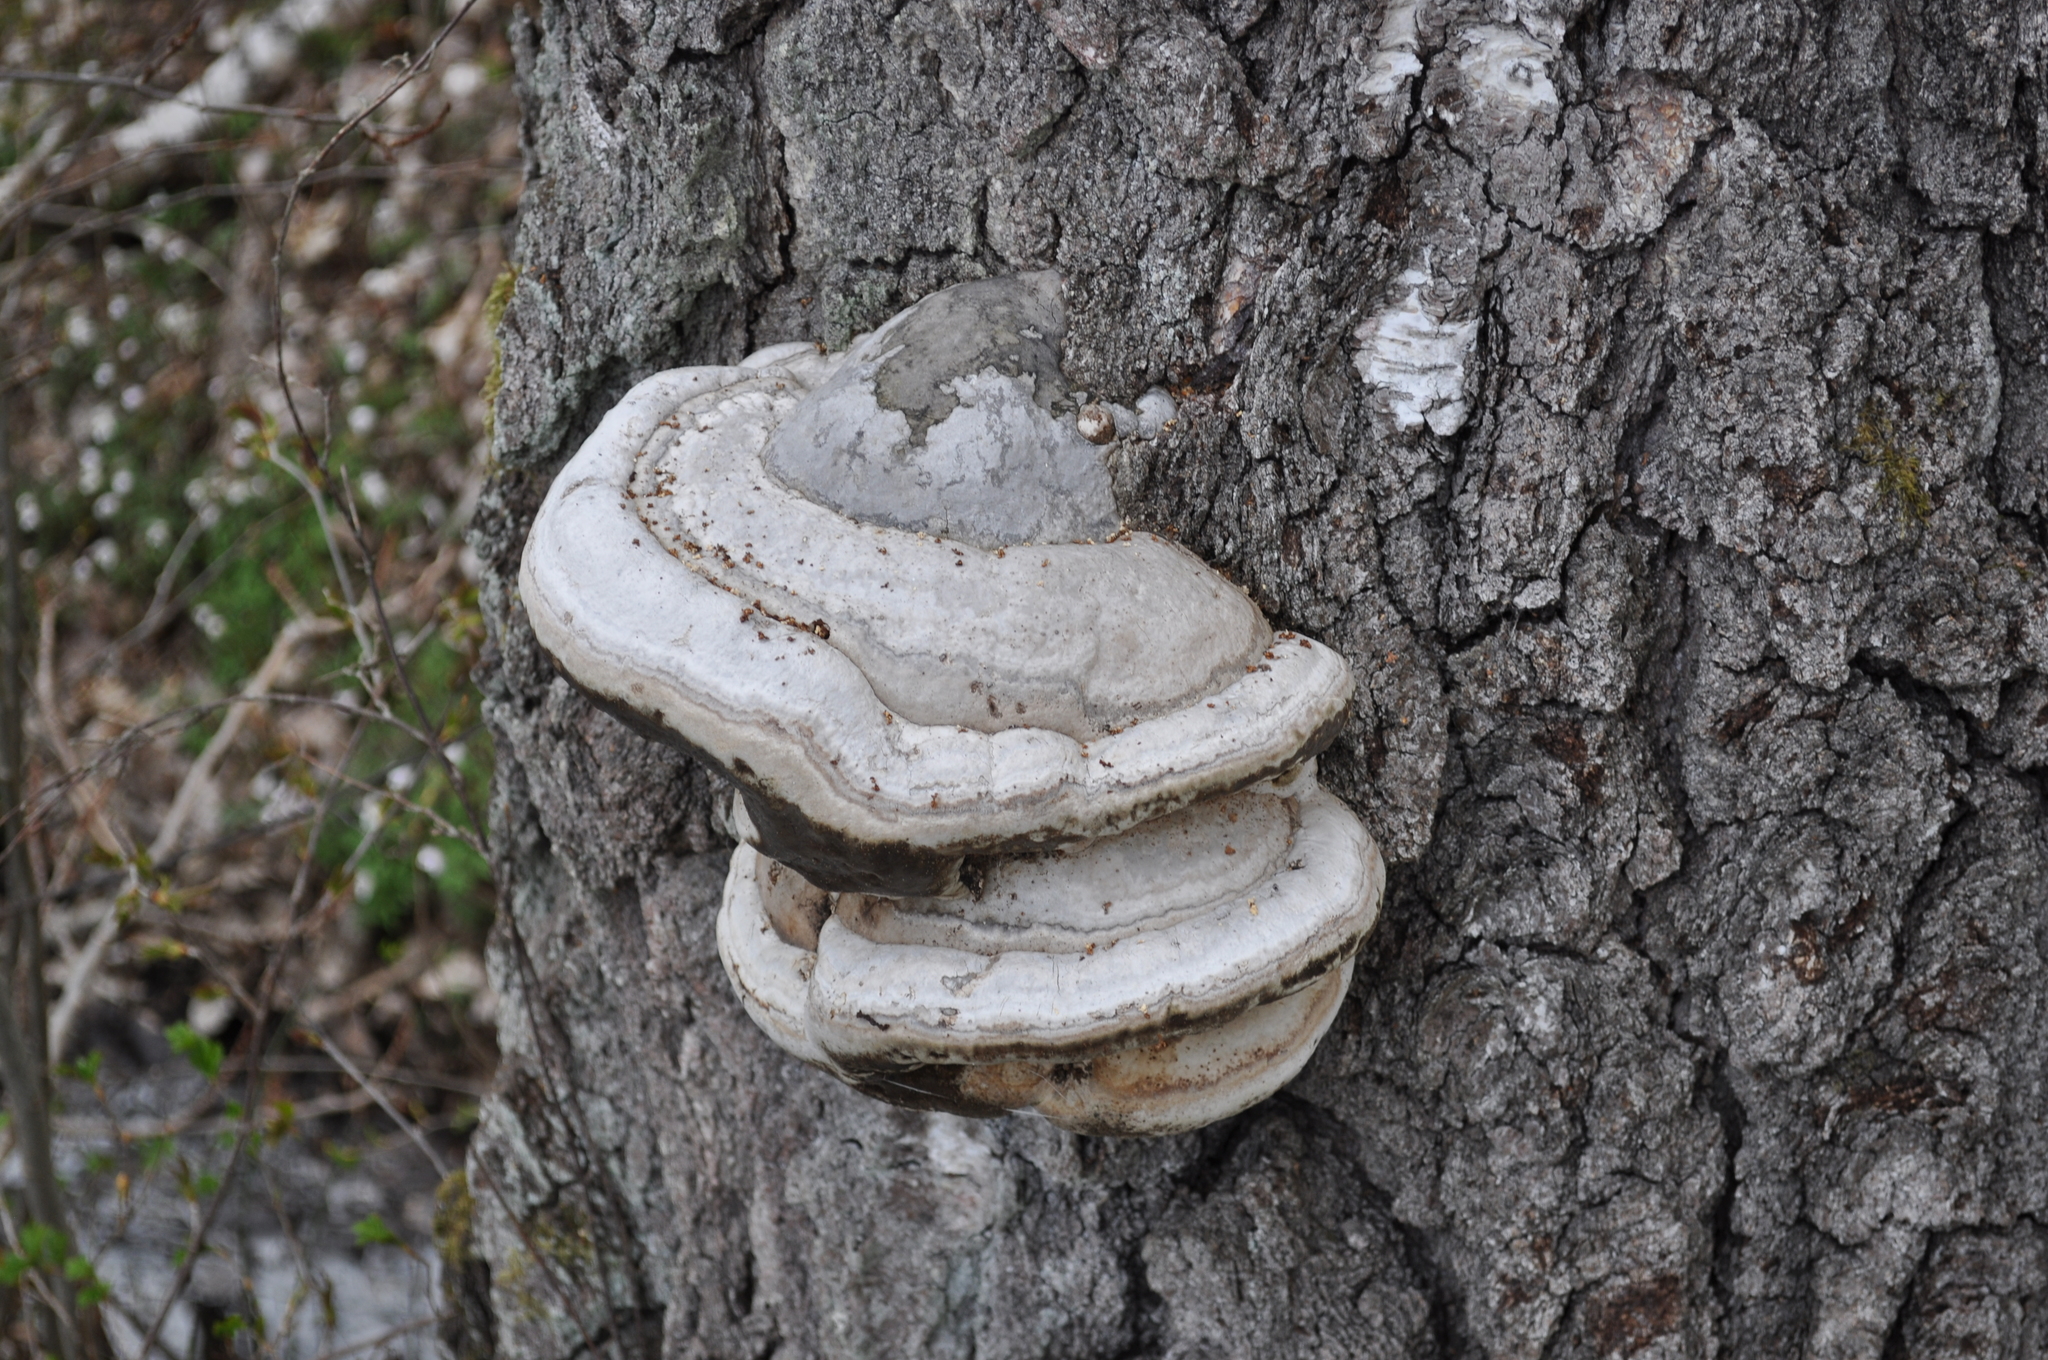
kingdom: Fungi
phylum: Basidiomycota
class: Agaricomycetes
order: Polyporales
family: Polyporaceae
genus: Fomes
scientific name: Fomes fomentarius
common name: Hoof fungus
